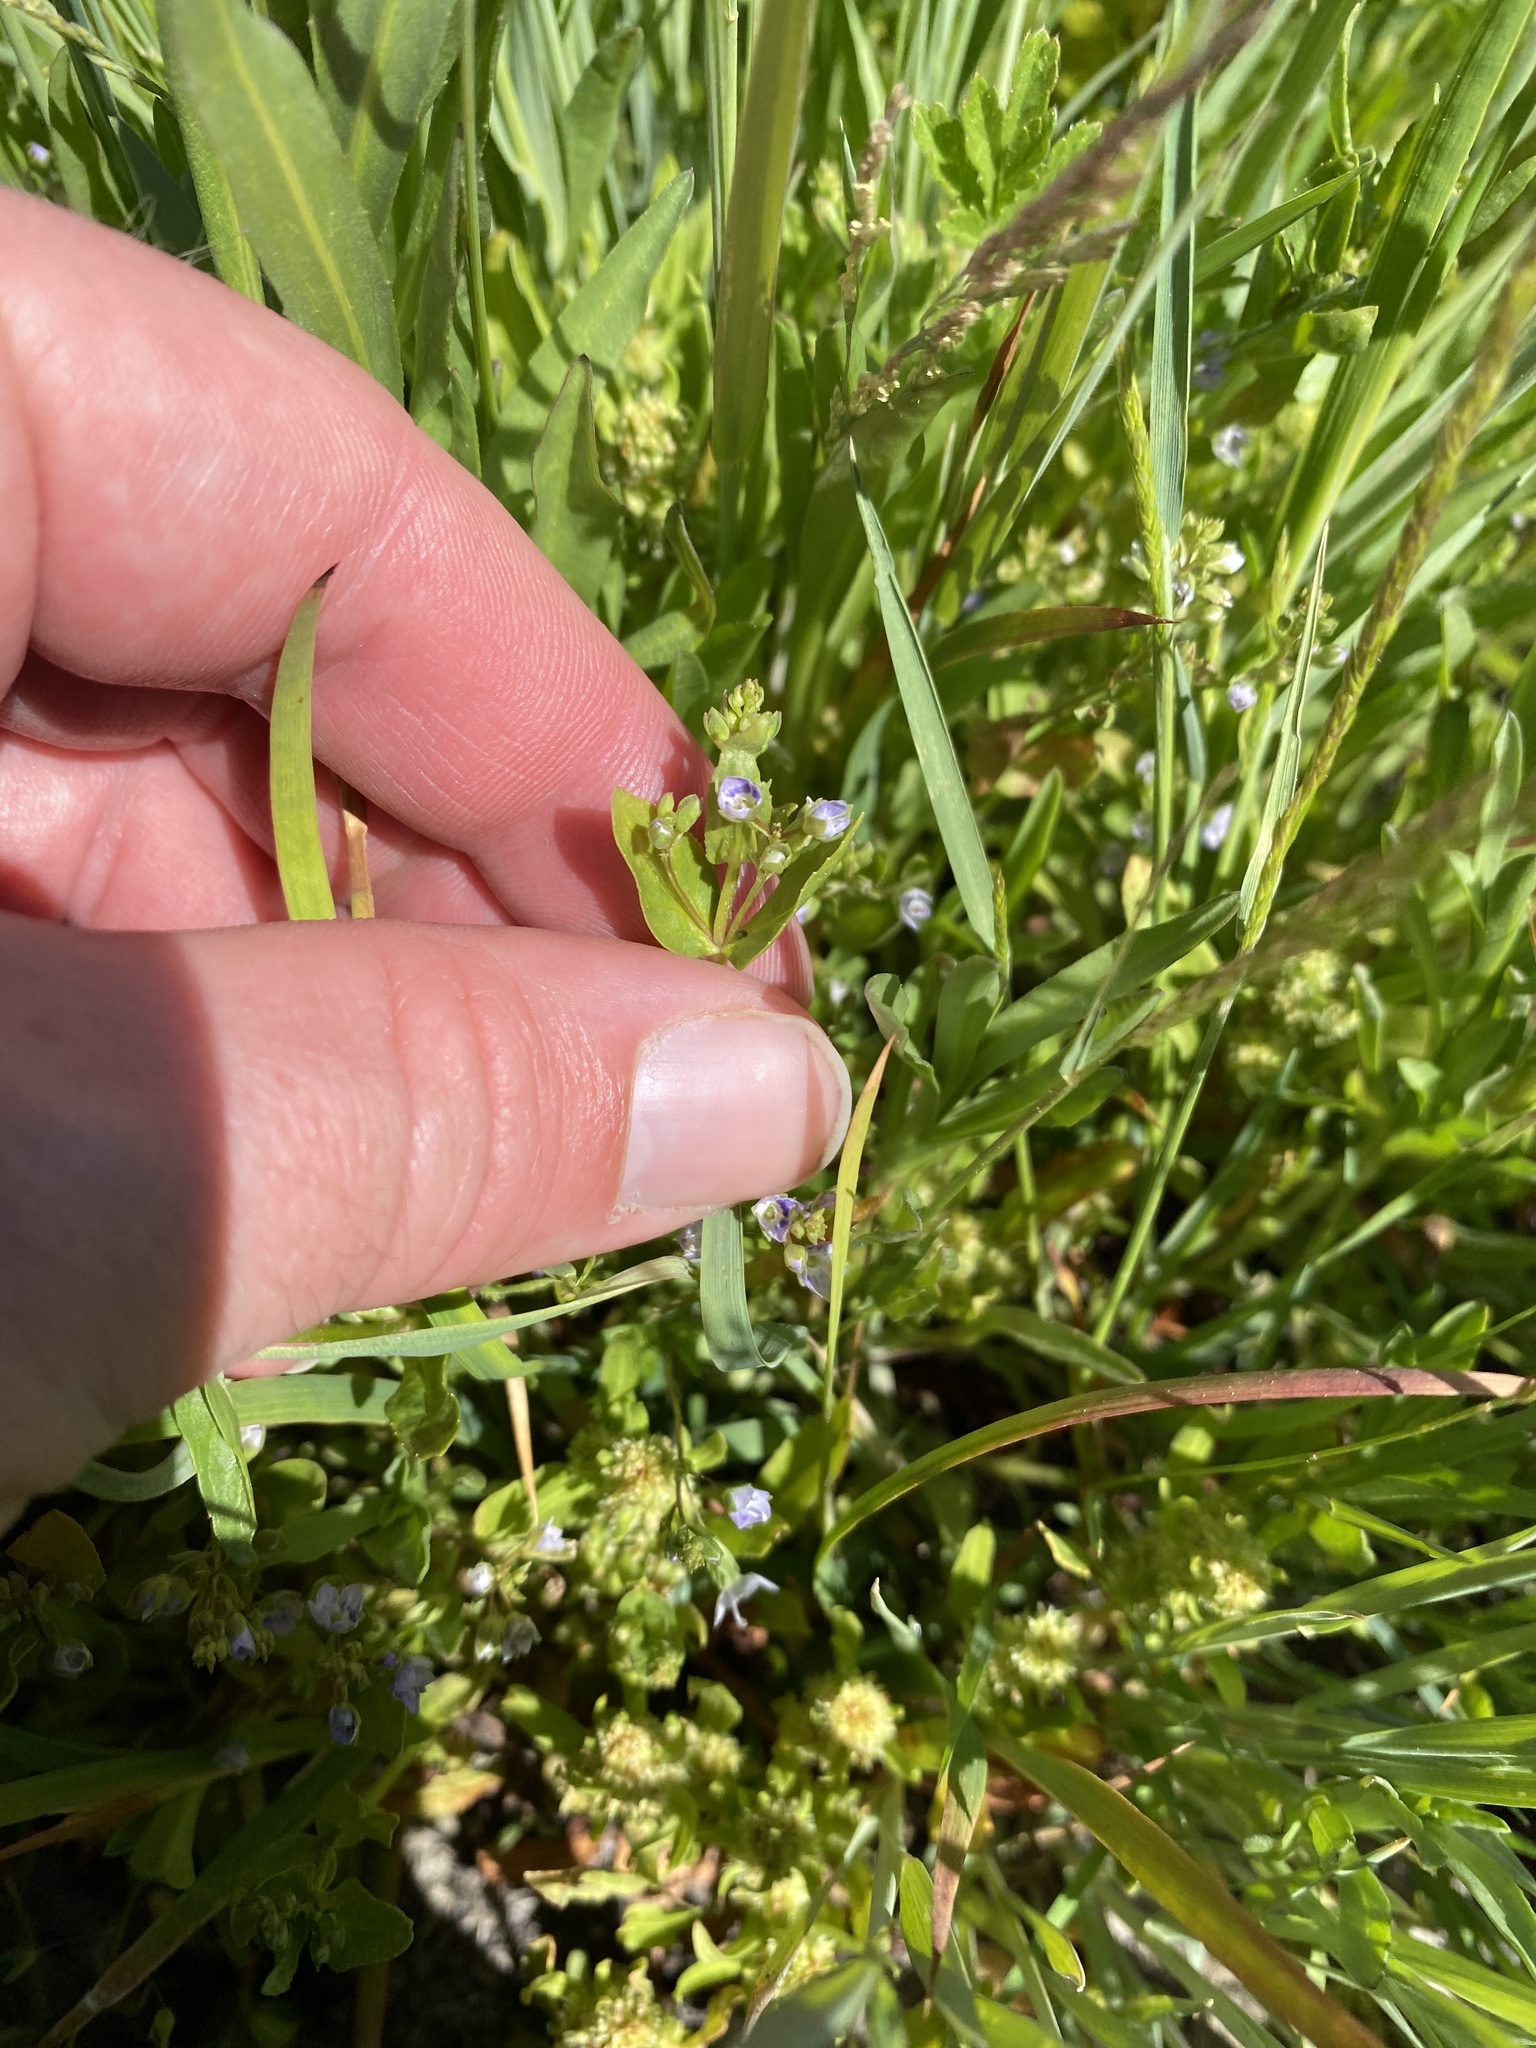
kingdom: Plantae
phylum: Tracheophyta
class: Magnoliopsida
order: Lamiales
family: Plantaginaceae
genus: Veronica
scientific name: Veronica anagallis-aquatica
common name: Water speedwell
